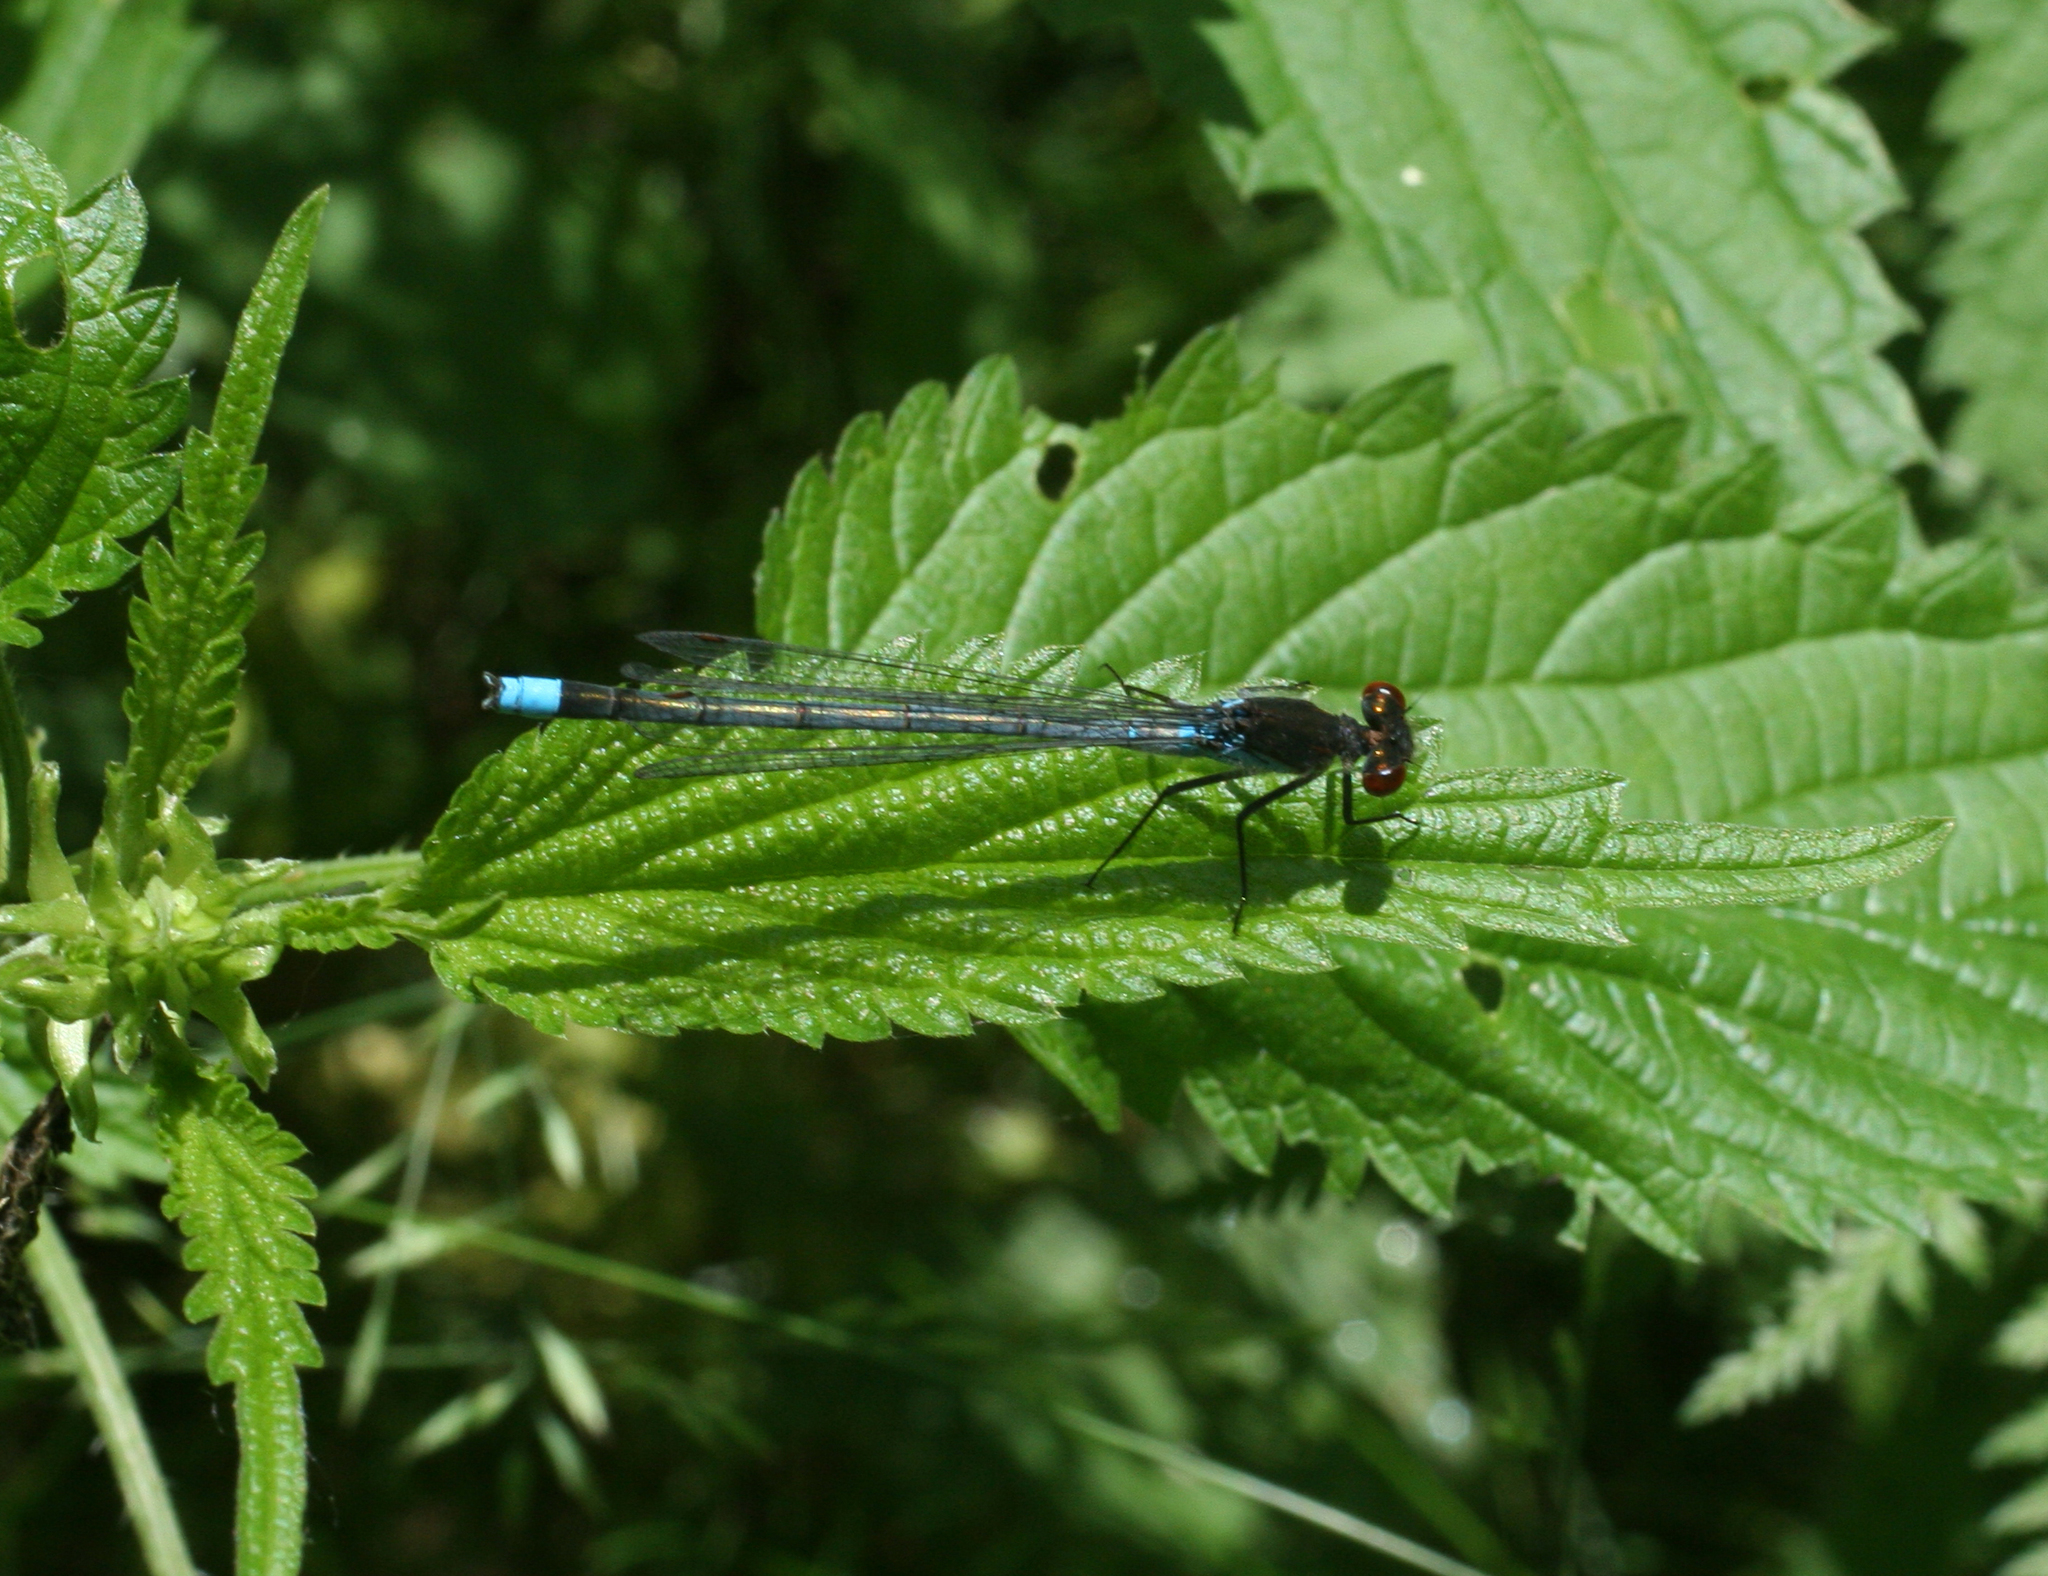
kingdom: Animalia
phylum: Arthropoda
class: Insecta
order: Odonata
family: Coenagrionidae
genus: Erythromma
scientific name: Erythromma najas
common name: Red-eyed damselfly
